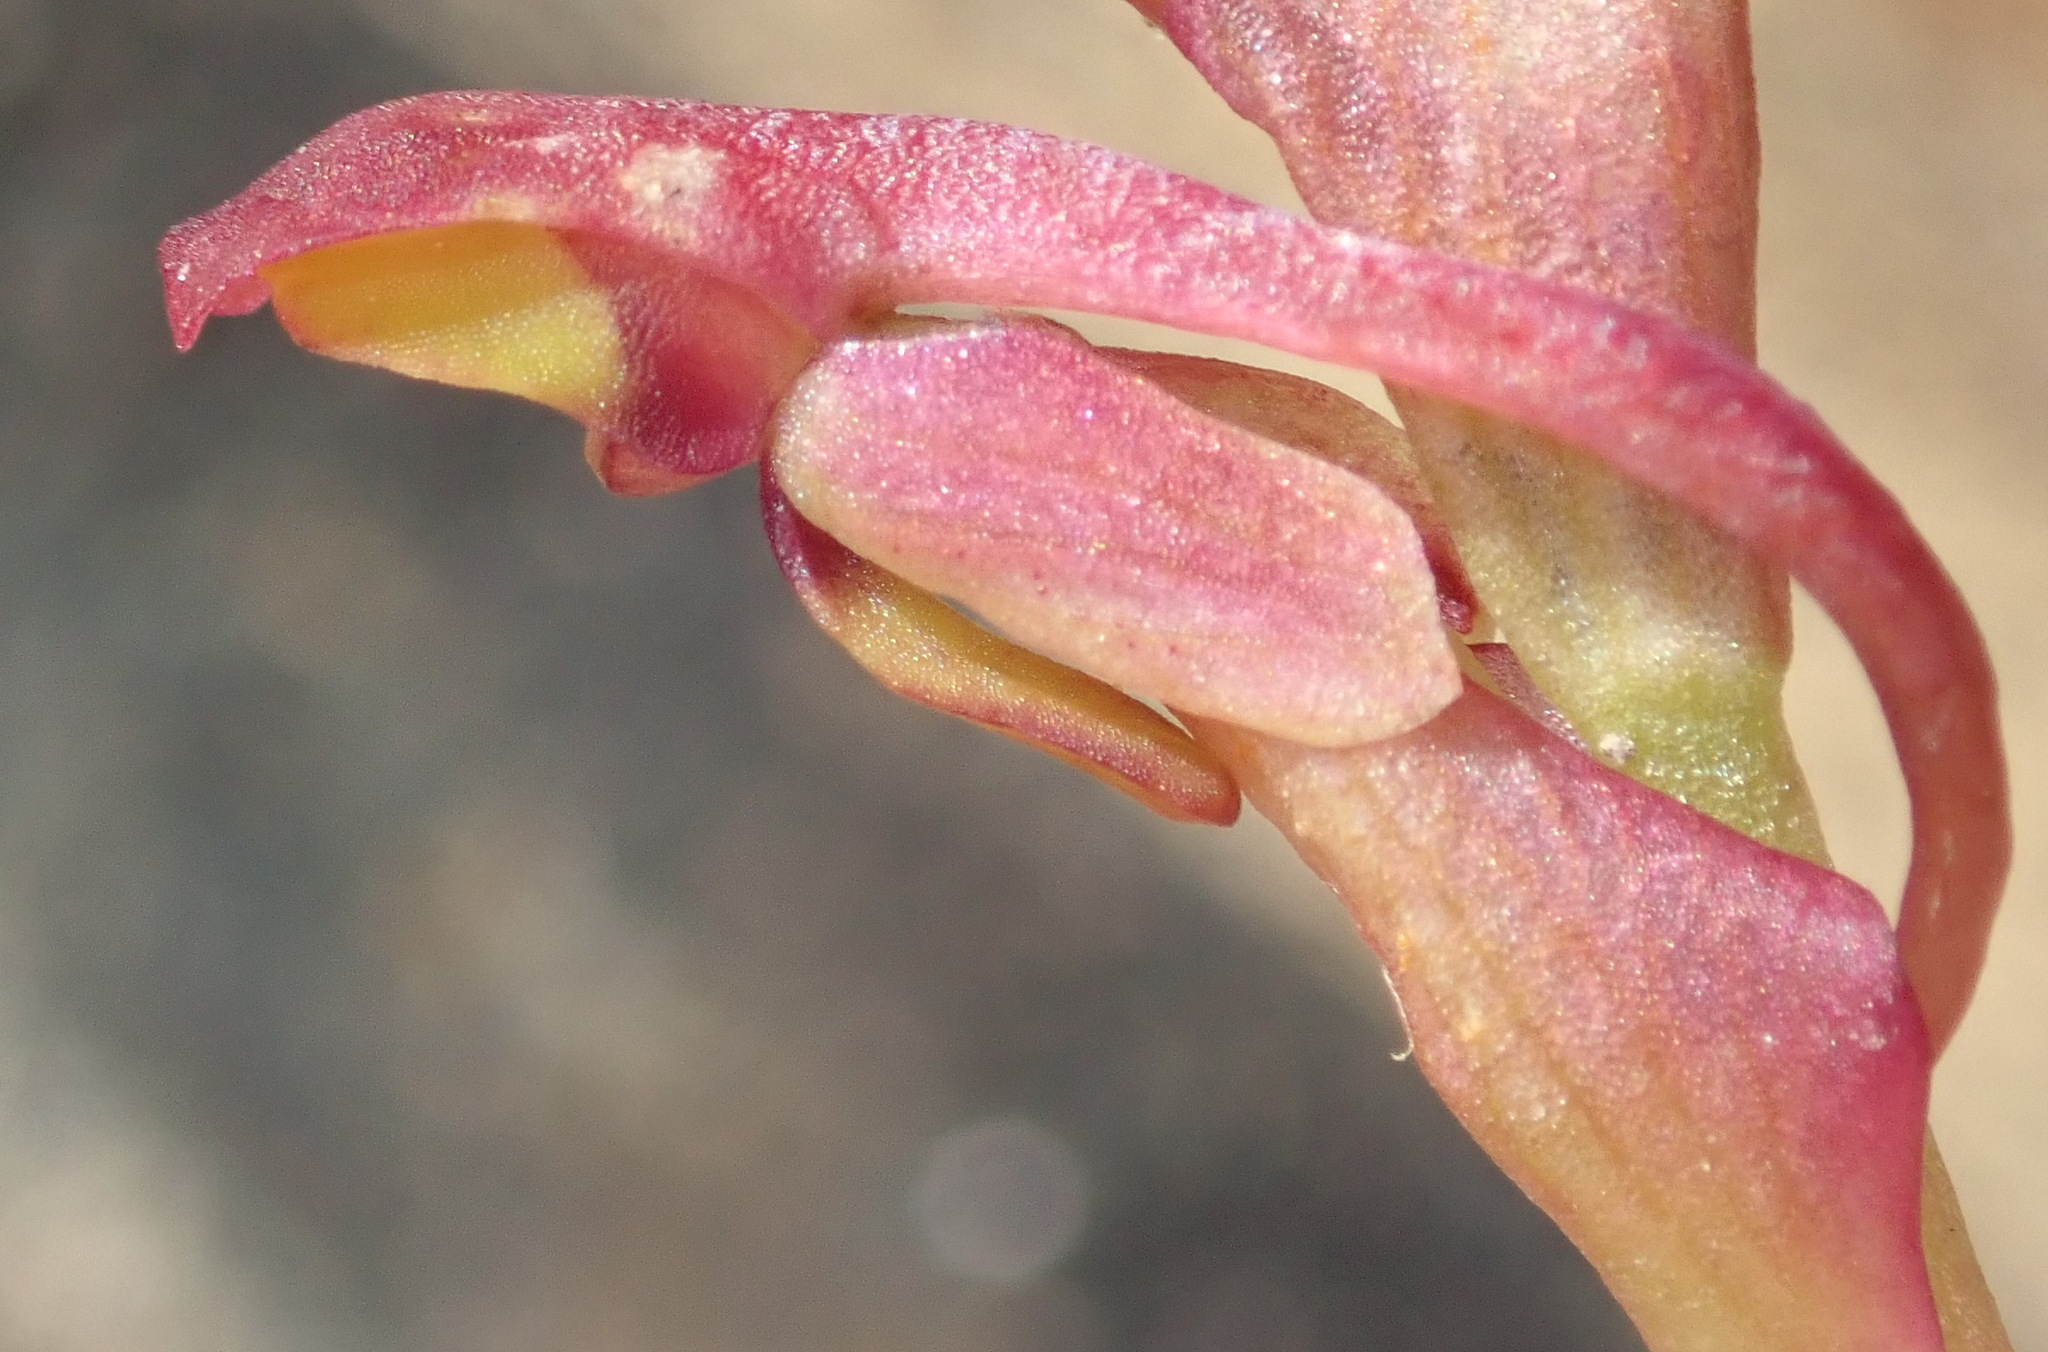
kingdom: Plantae
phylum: Tracheophyta
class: Liliopsida
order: Asparagales
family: Orchidaceae
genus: Disa
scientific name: Disa reticulata
